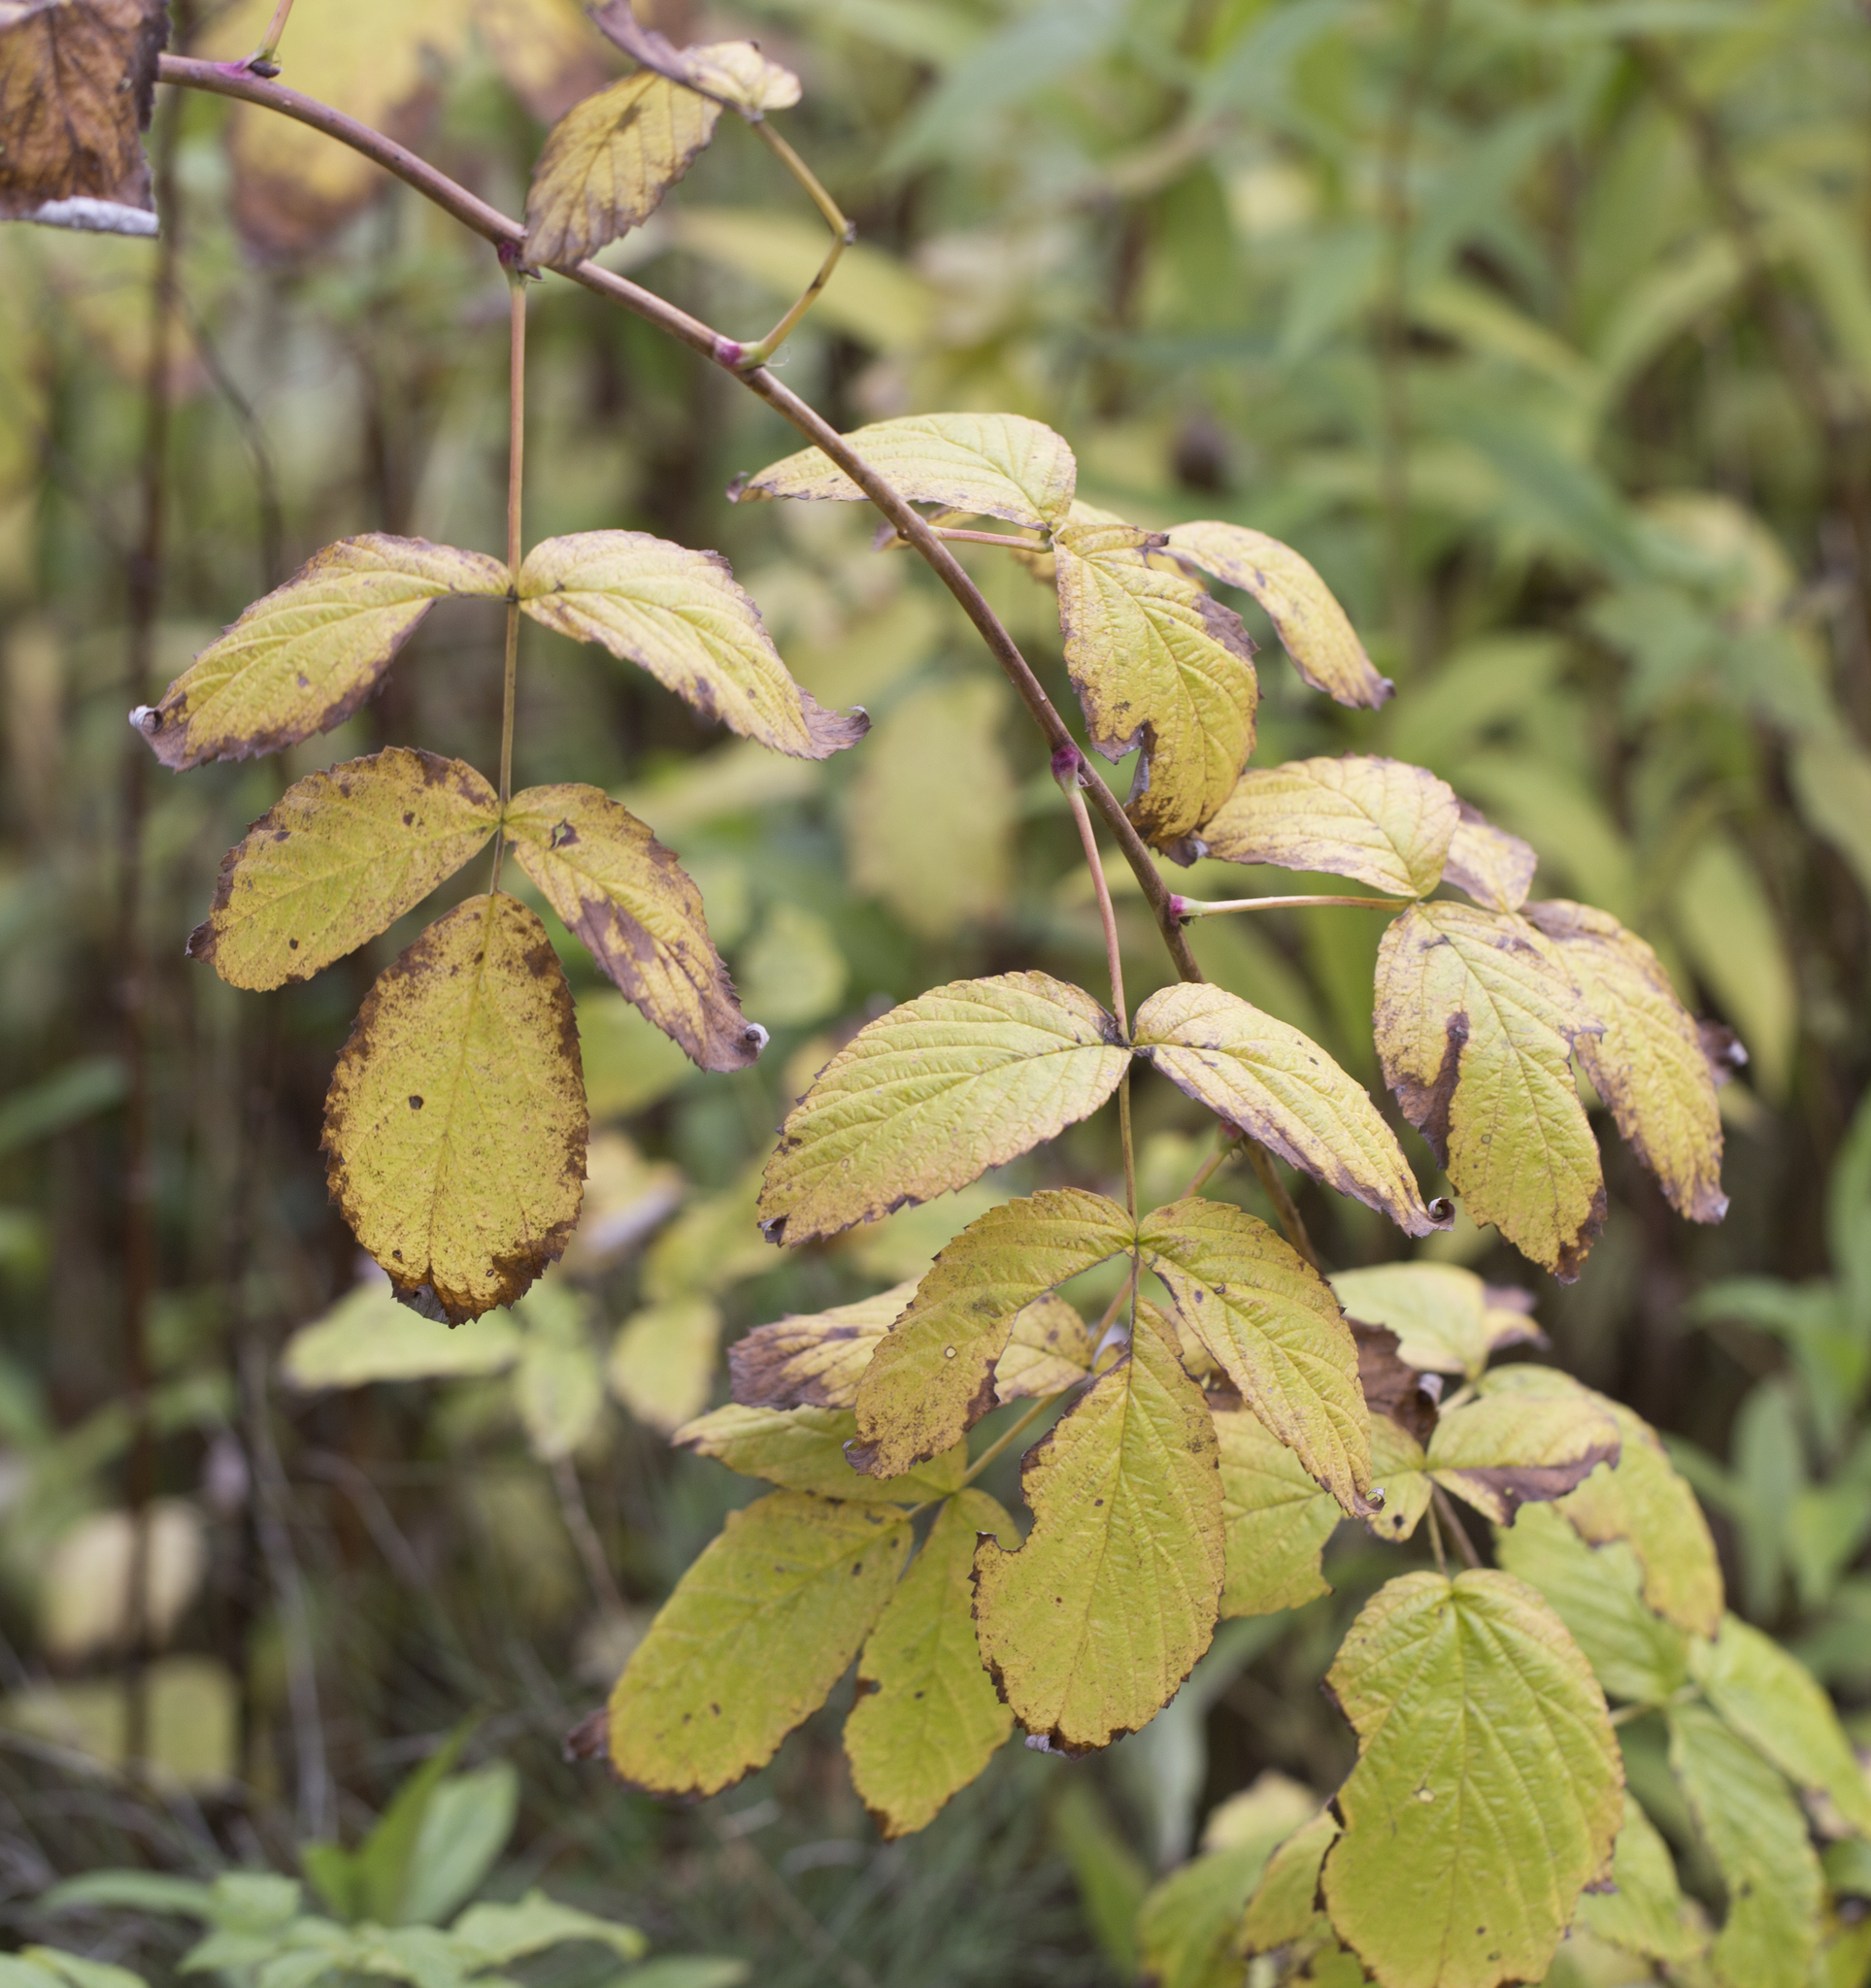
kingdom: Plantae
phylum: Tracheophyta
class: Magnoliopsida
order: Rosales
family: Rosaceae
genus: Rubus
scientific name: Rubus idaeus
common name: Raspberry
